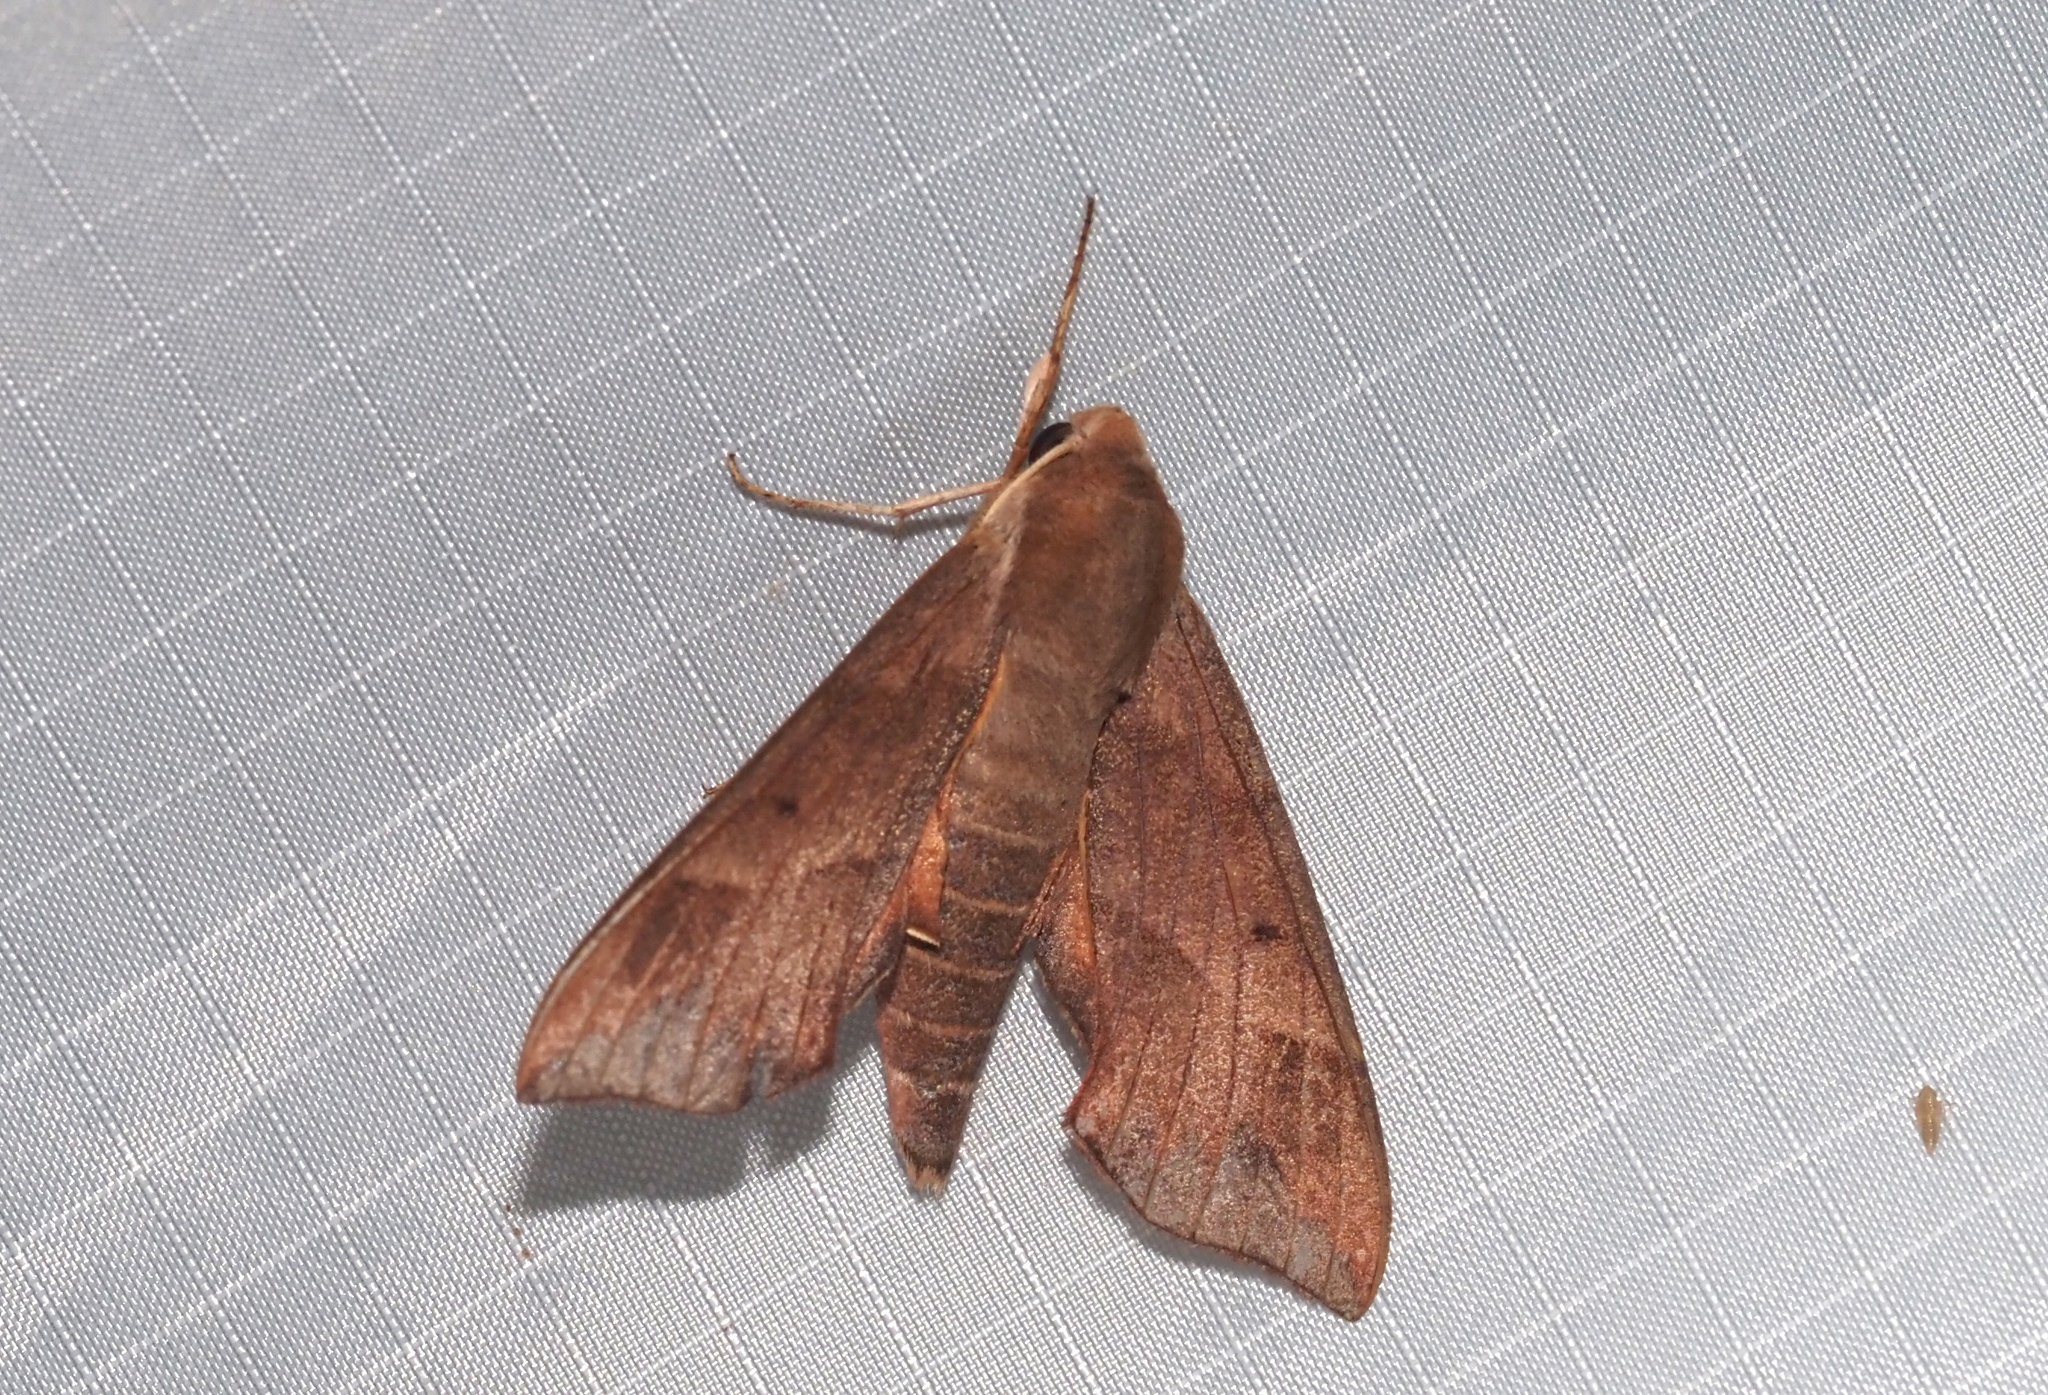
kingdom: Animalia
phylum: Arthropoda
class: Insecta
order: Lepidoptera
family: Sphingidae
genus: Darapsa
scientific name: Darapsa myron
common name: Hog sphinx
